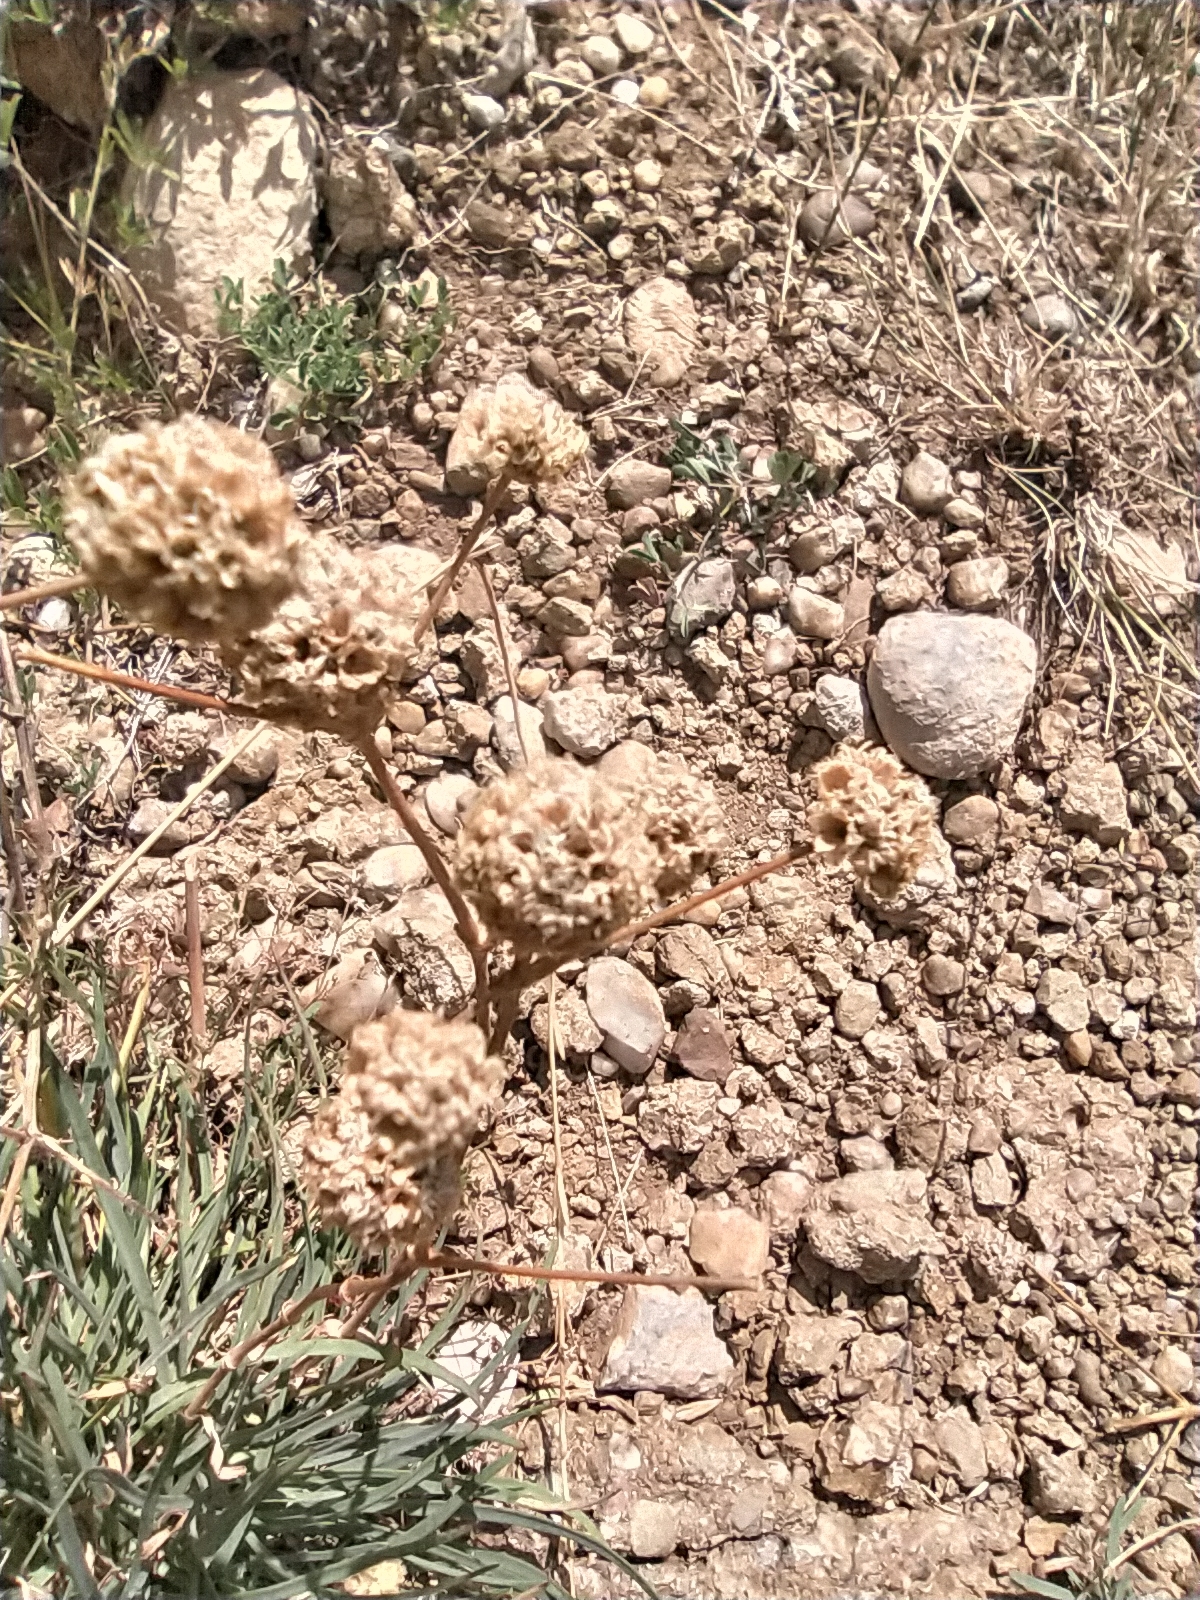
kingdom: Plantae
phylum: Tracheophyta
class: Magnoliopsida
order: Caryophyllales
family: Caryophyllaceae
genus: Gypsophila
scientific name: Gypsophila pallasii
